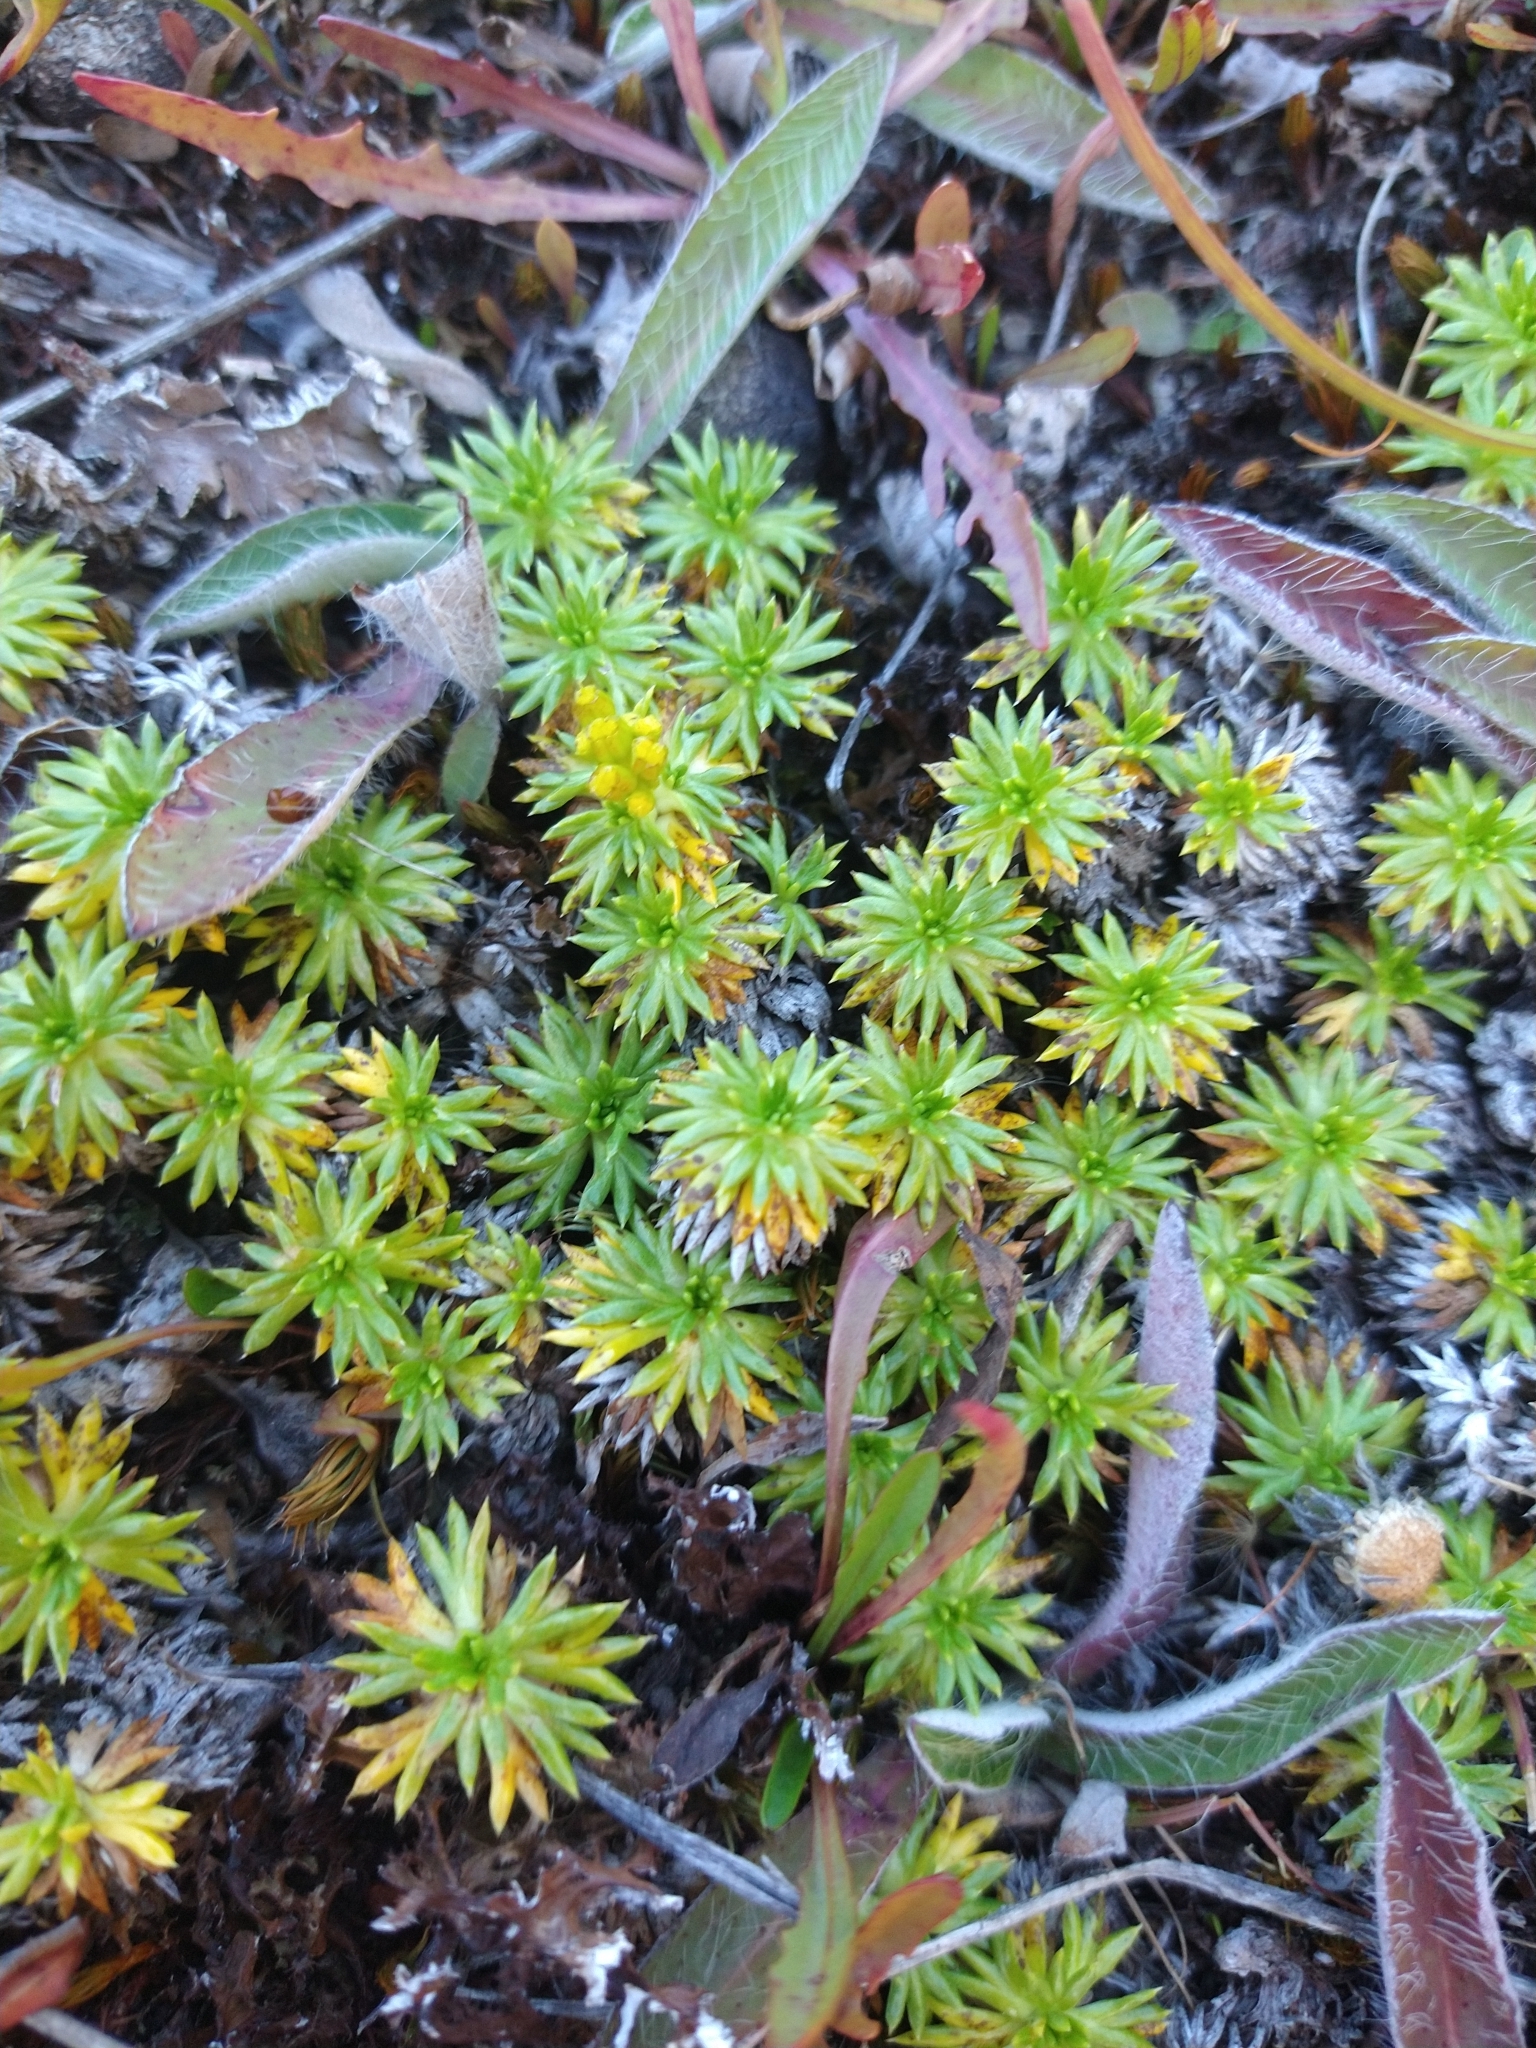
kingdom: Plantae
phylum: Tracheophyta
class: Magnoliopsida
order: Apiales
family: Apiaceae
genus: Azorella
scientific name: Azorella trifurcata
